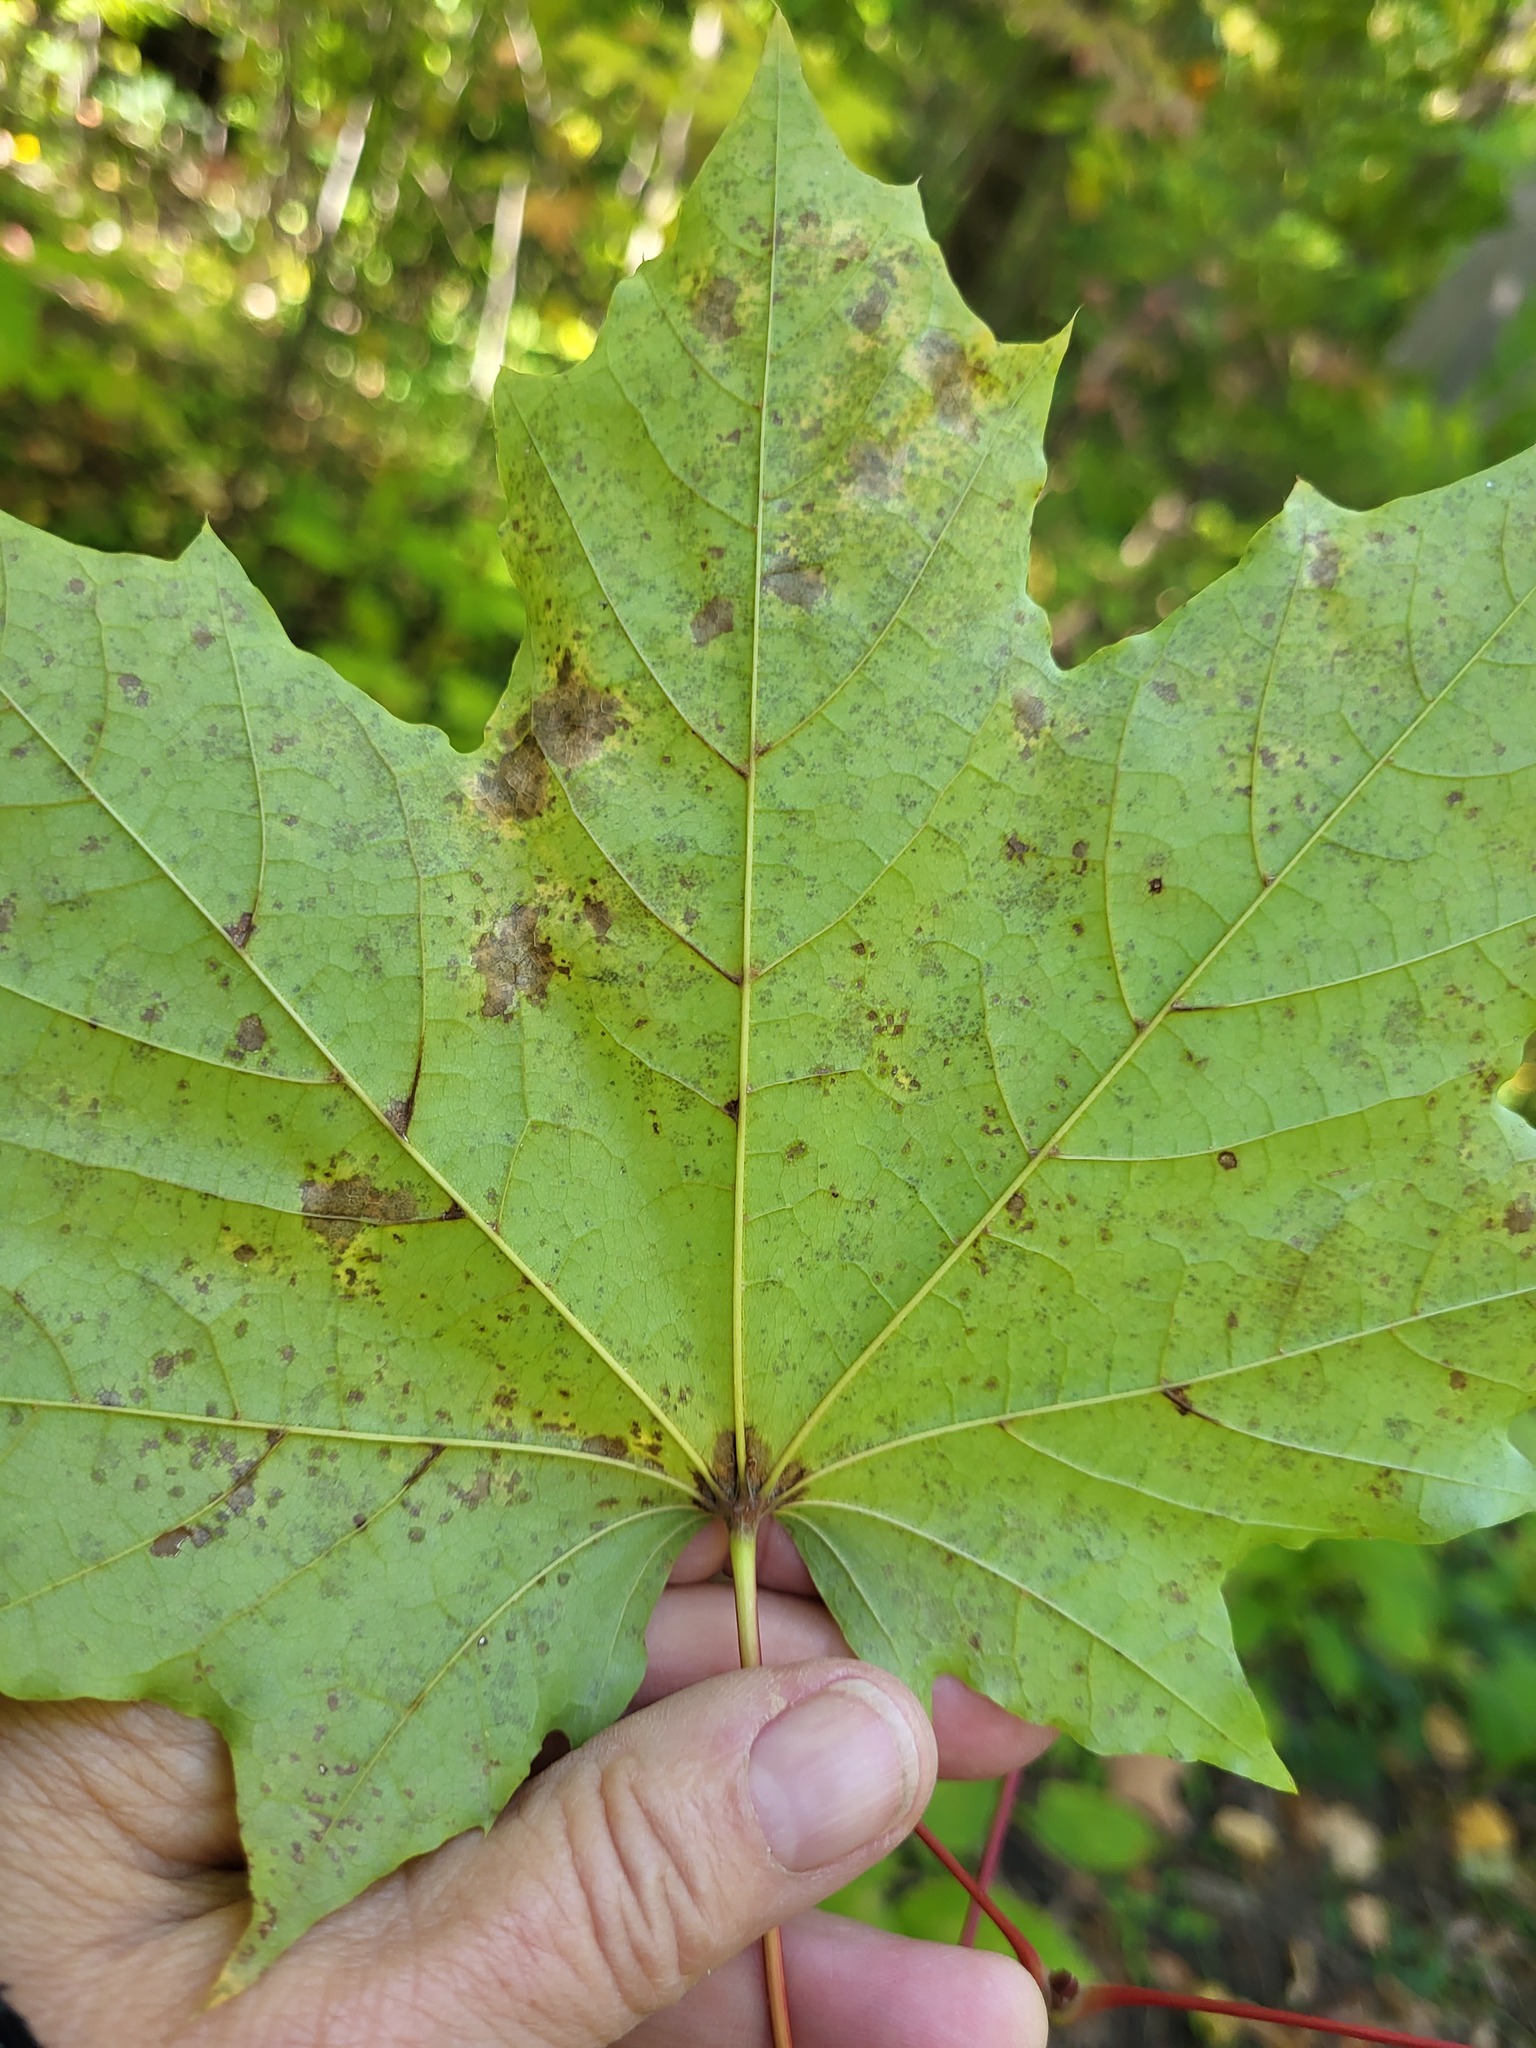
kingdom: Plantae
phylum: Tracheophyta
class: Magnoliopsida
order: Sapindales
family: Sapindaceae
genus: Acer
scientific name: Acer platanoides
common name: Norway maple
